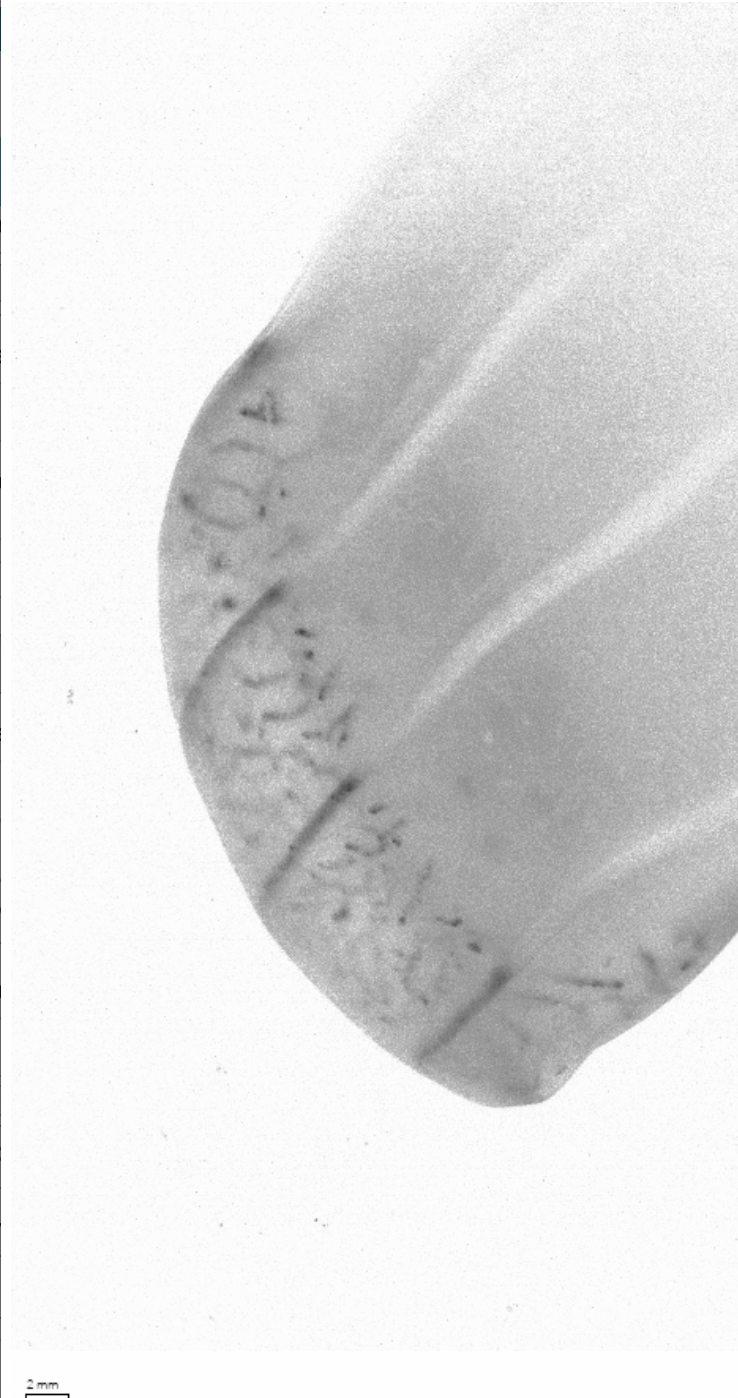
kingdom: Animalia
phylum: Ctenophora
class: Nuda
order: Beroida
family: Beroidae
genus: Beroe
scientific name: Beroe abyssicola
